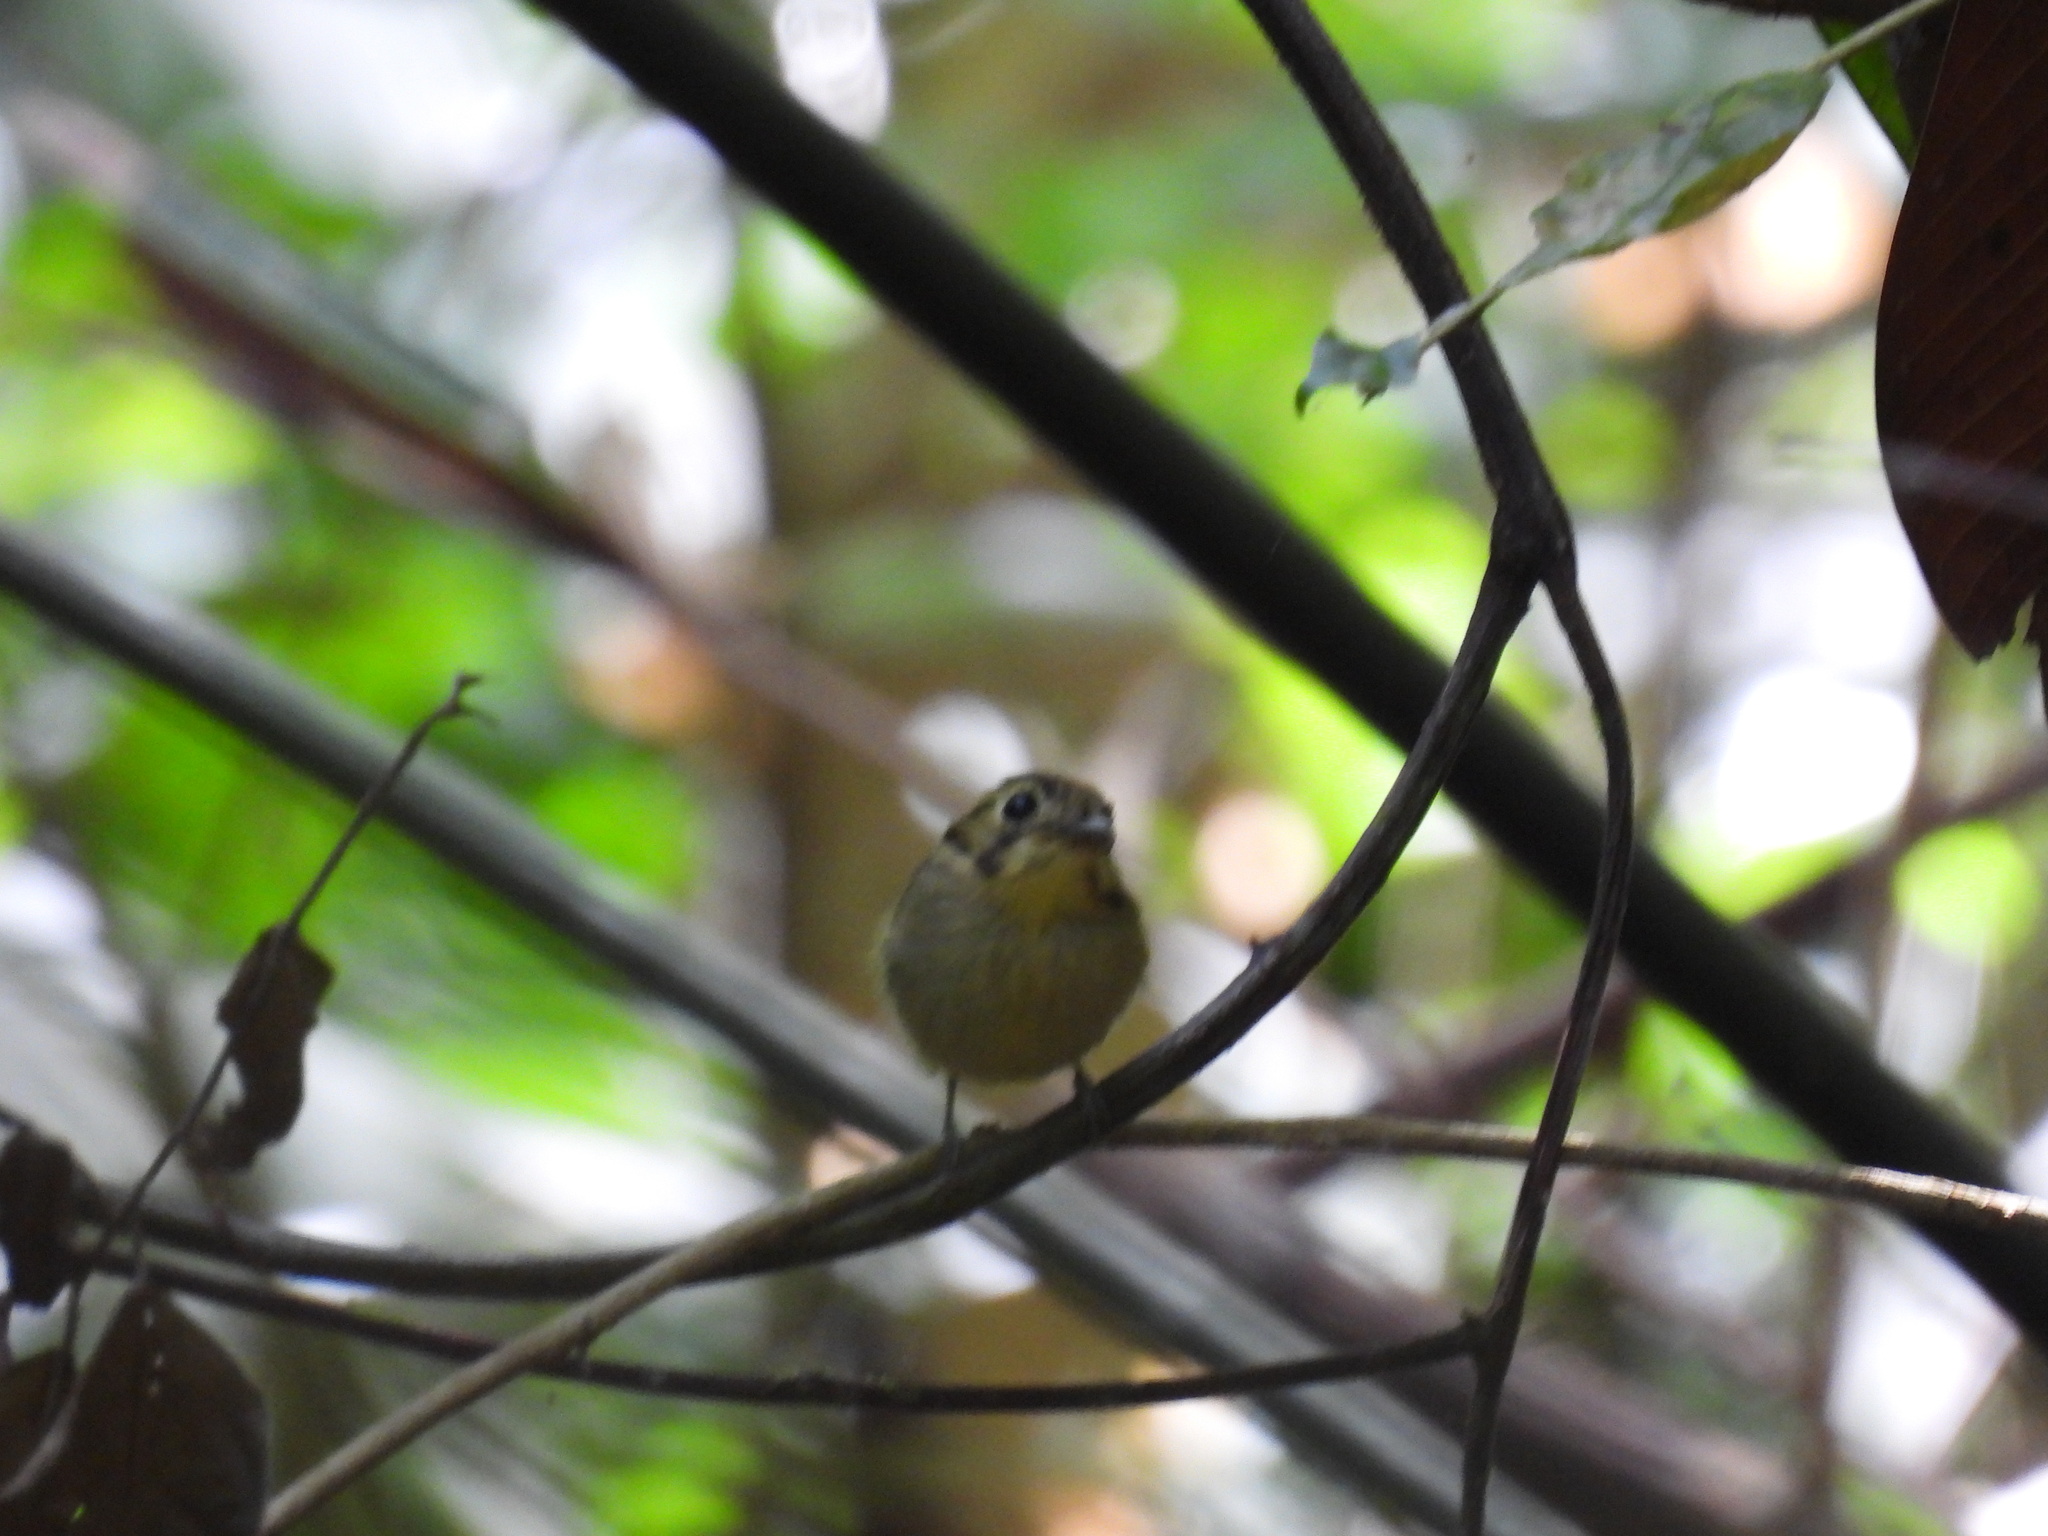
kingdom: Animalia
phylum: Chordata
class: Aves
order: Passeriformes
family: Tyrannidae
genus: Platyrinchus
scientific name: Platyrinchus coronatus
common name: Golden-crowned spadebill
